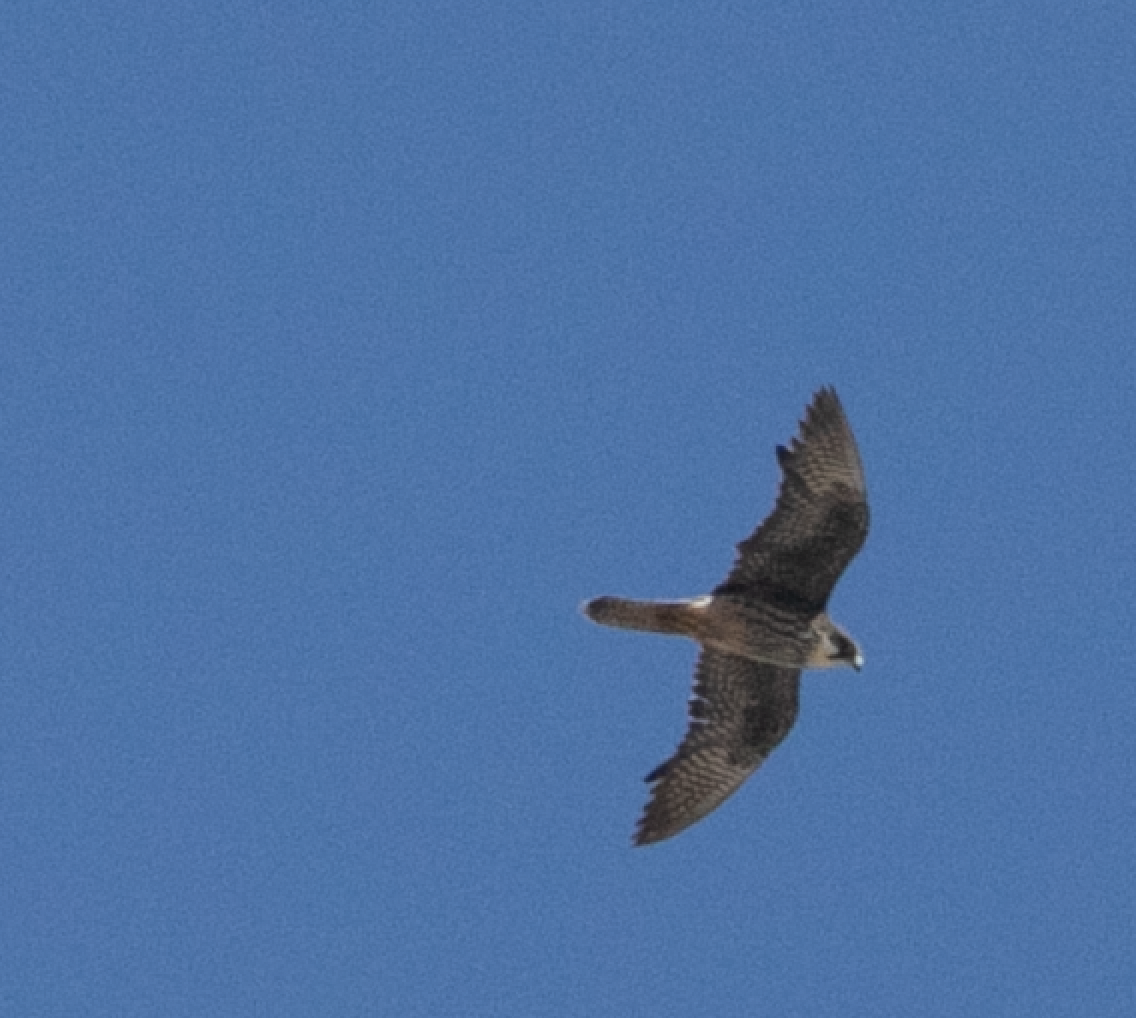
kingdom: Animalia
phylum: Chordata
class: Aves
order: Falconiformes
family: Falconidae
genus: Falco
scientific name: Falco eleonorae
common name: Eleonora's falcon
